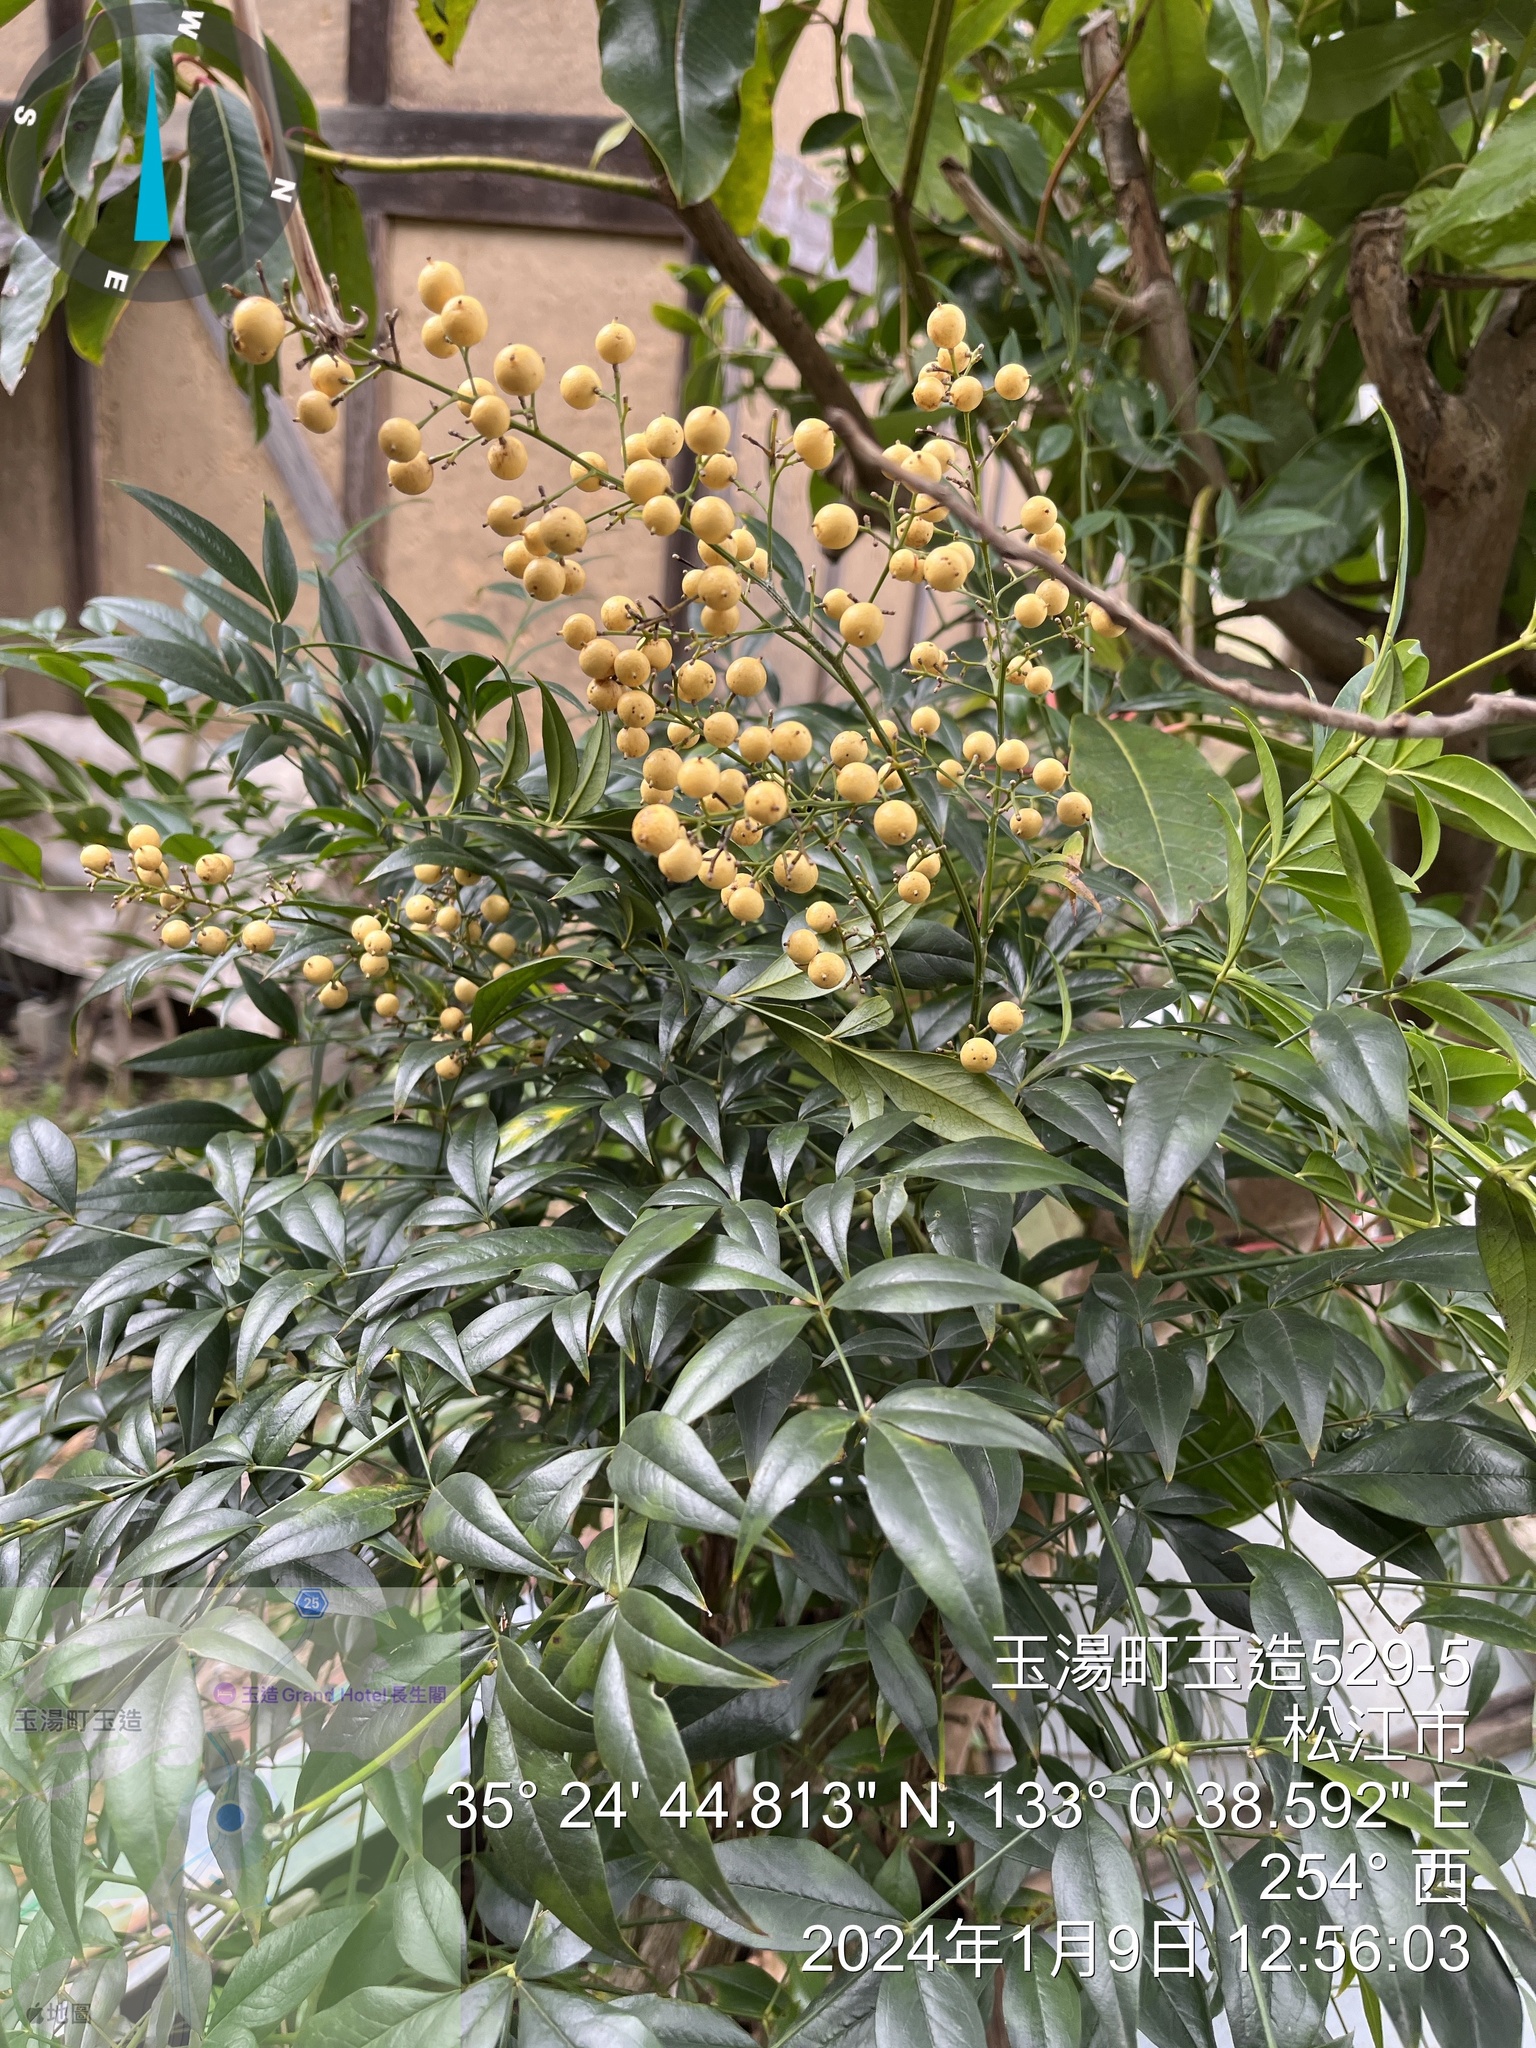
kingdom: Plantae
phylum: Tracheophyta
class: Magnoliopsida
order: Ranunculales
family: Berberidaceae
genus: Nandina
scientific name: Nandina domestica
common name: Sacred bamboo
